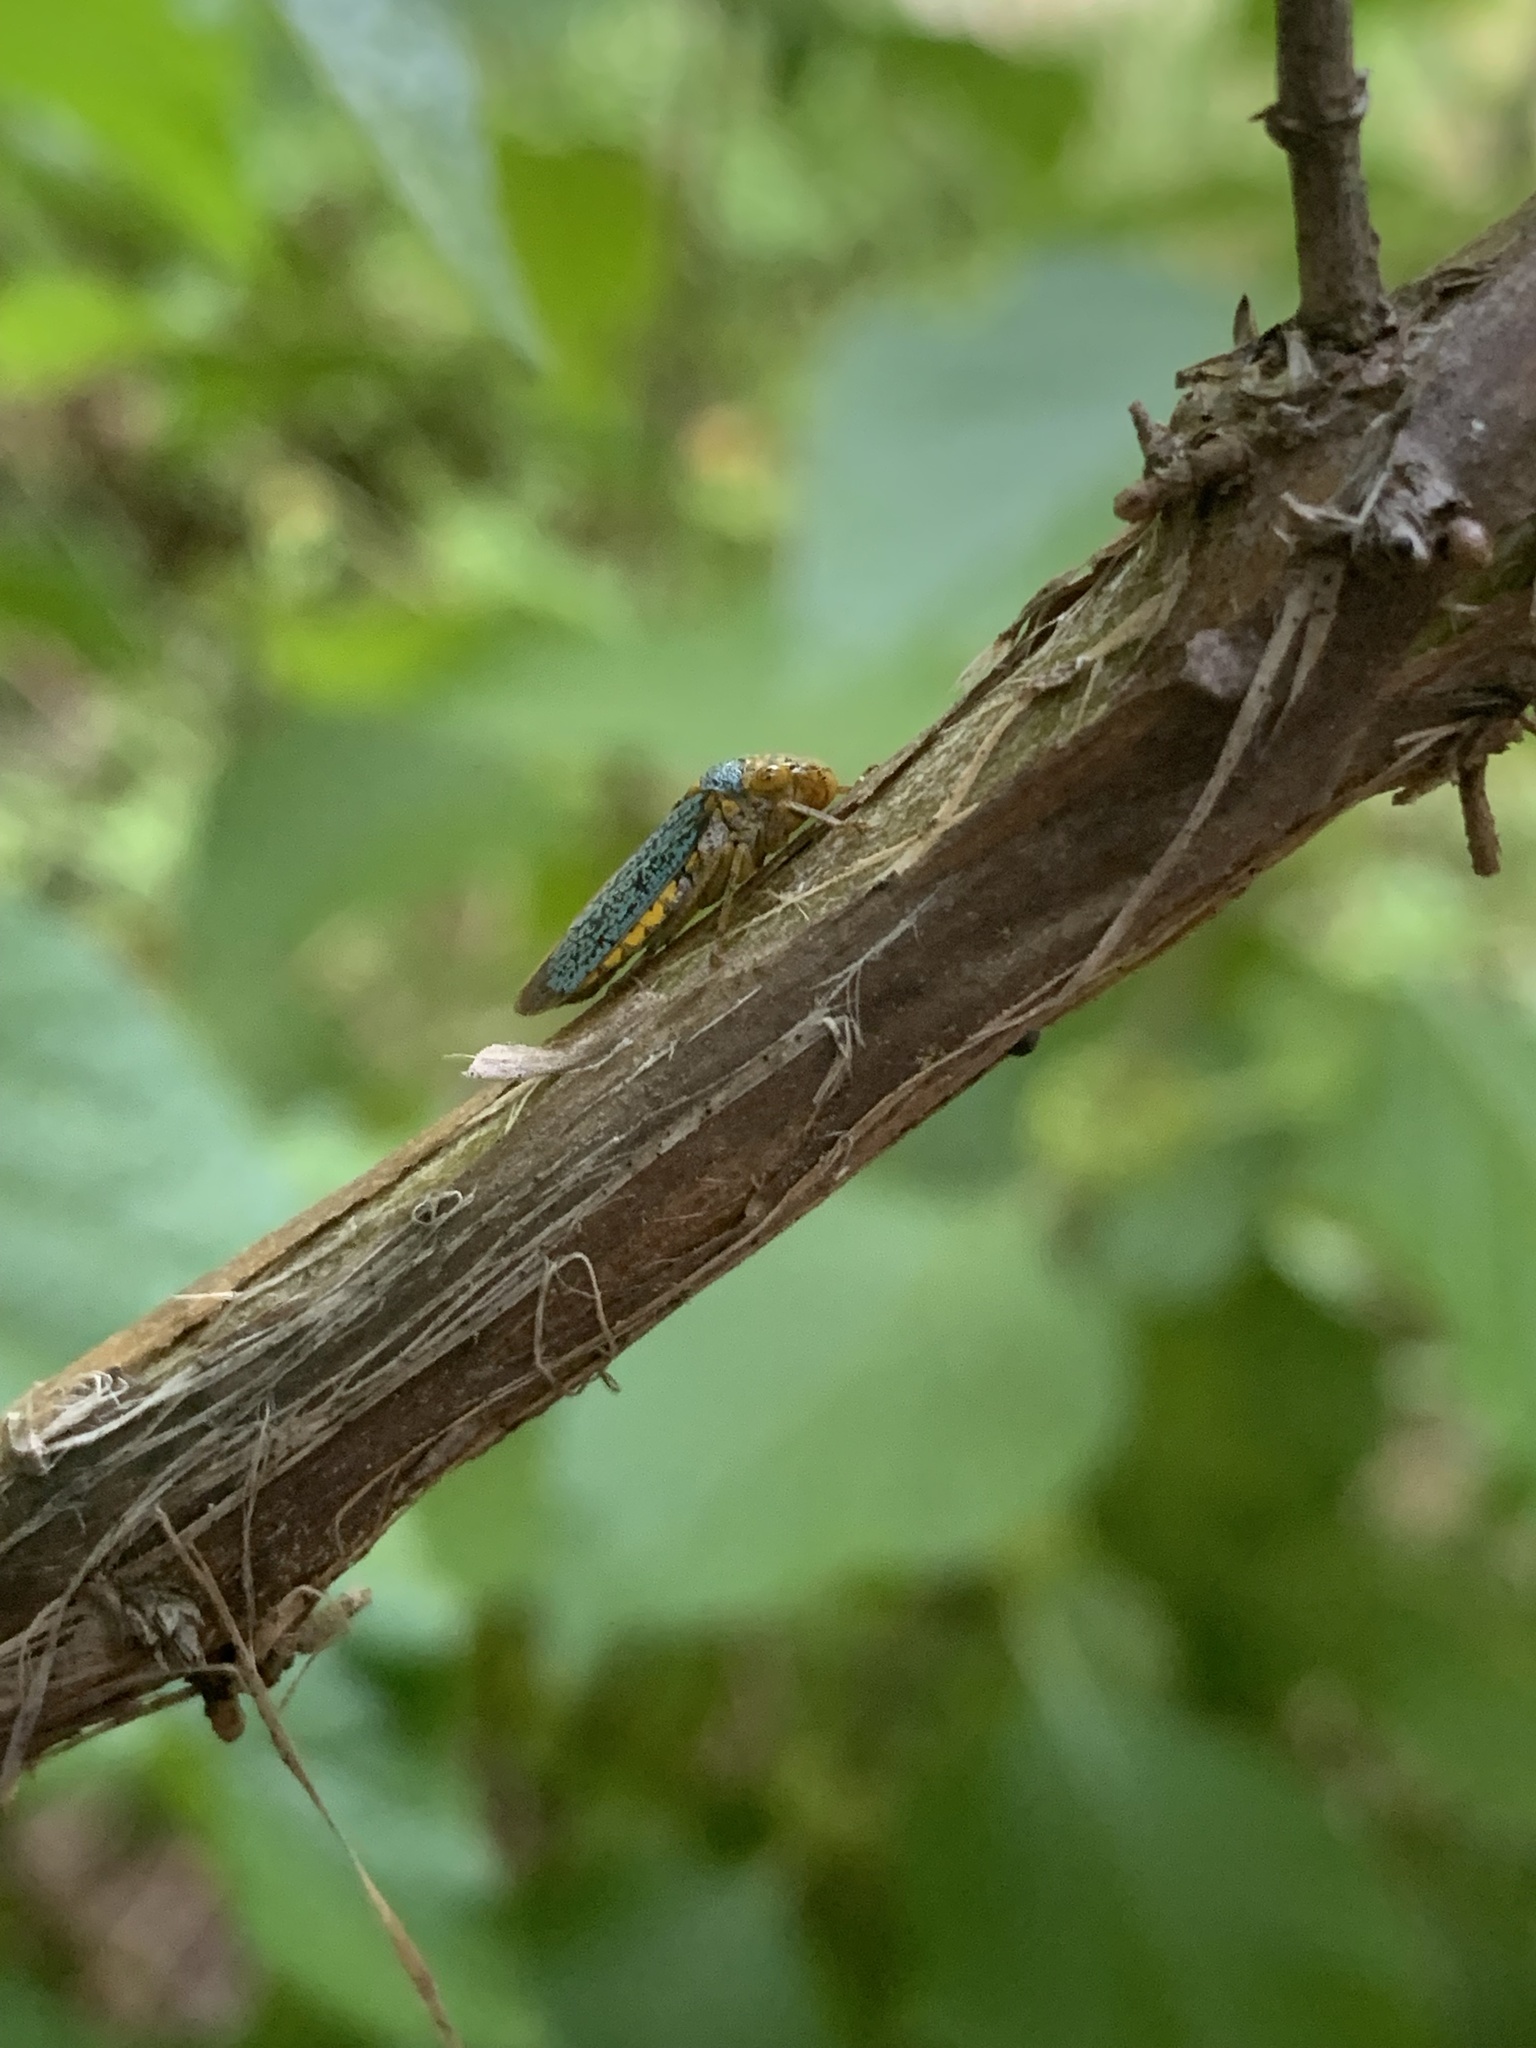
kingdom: Animalia
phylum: Arthropoda
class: Insecta
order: Hemiptera
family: Cicadellidae
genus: Oncometopia
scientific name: Oncometopia orbona
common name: Broad-headed sharpshooter
